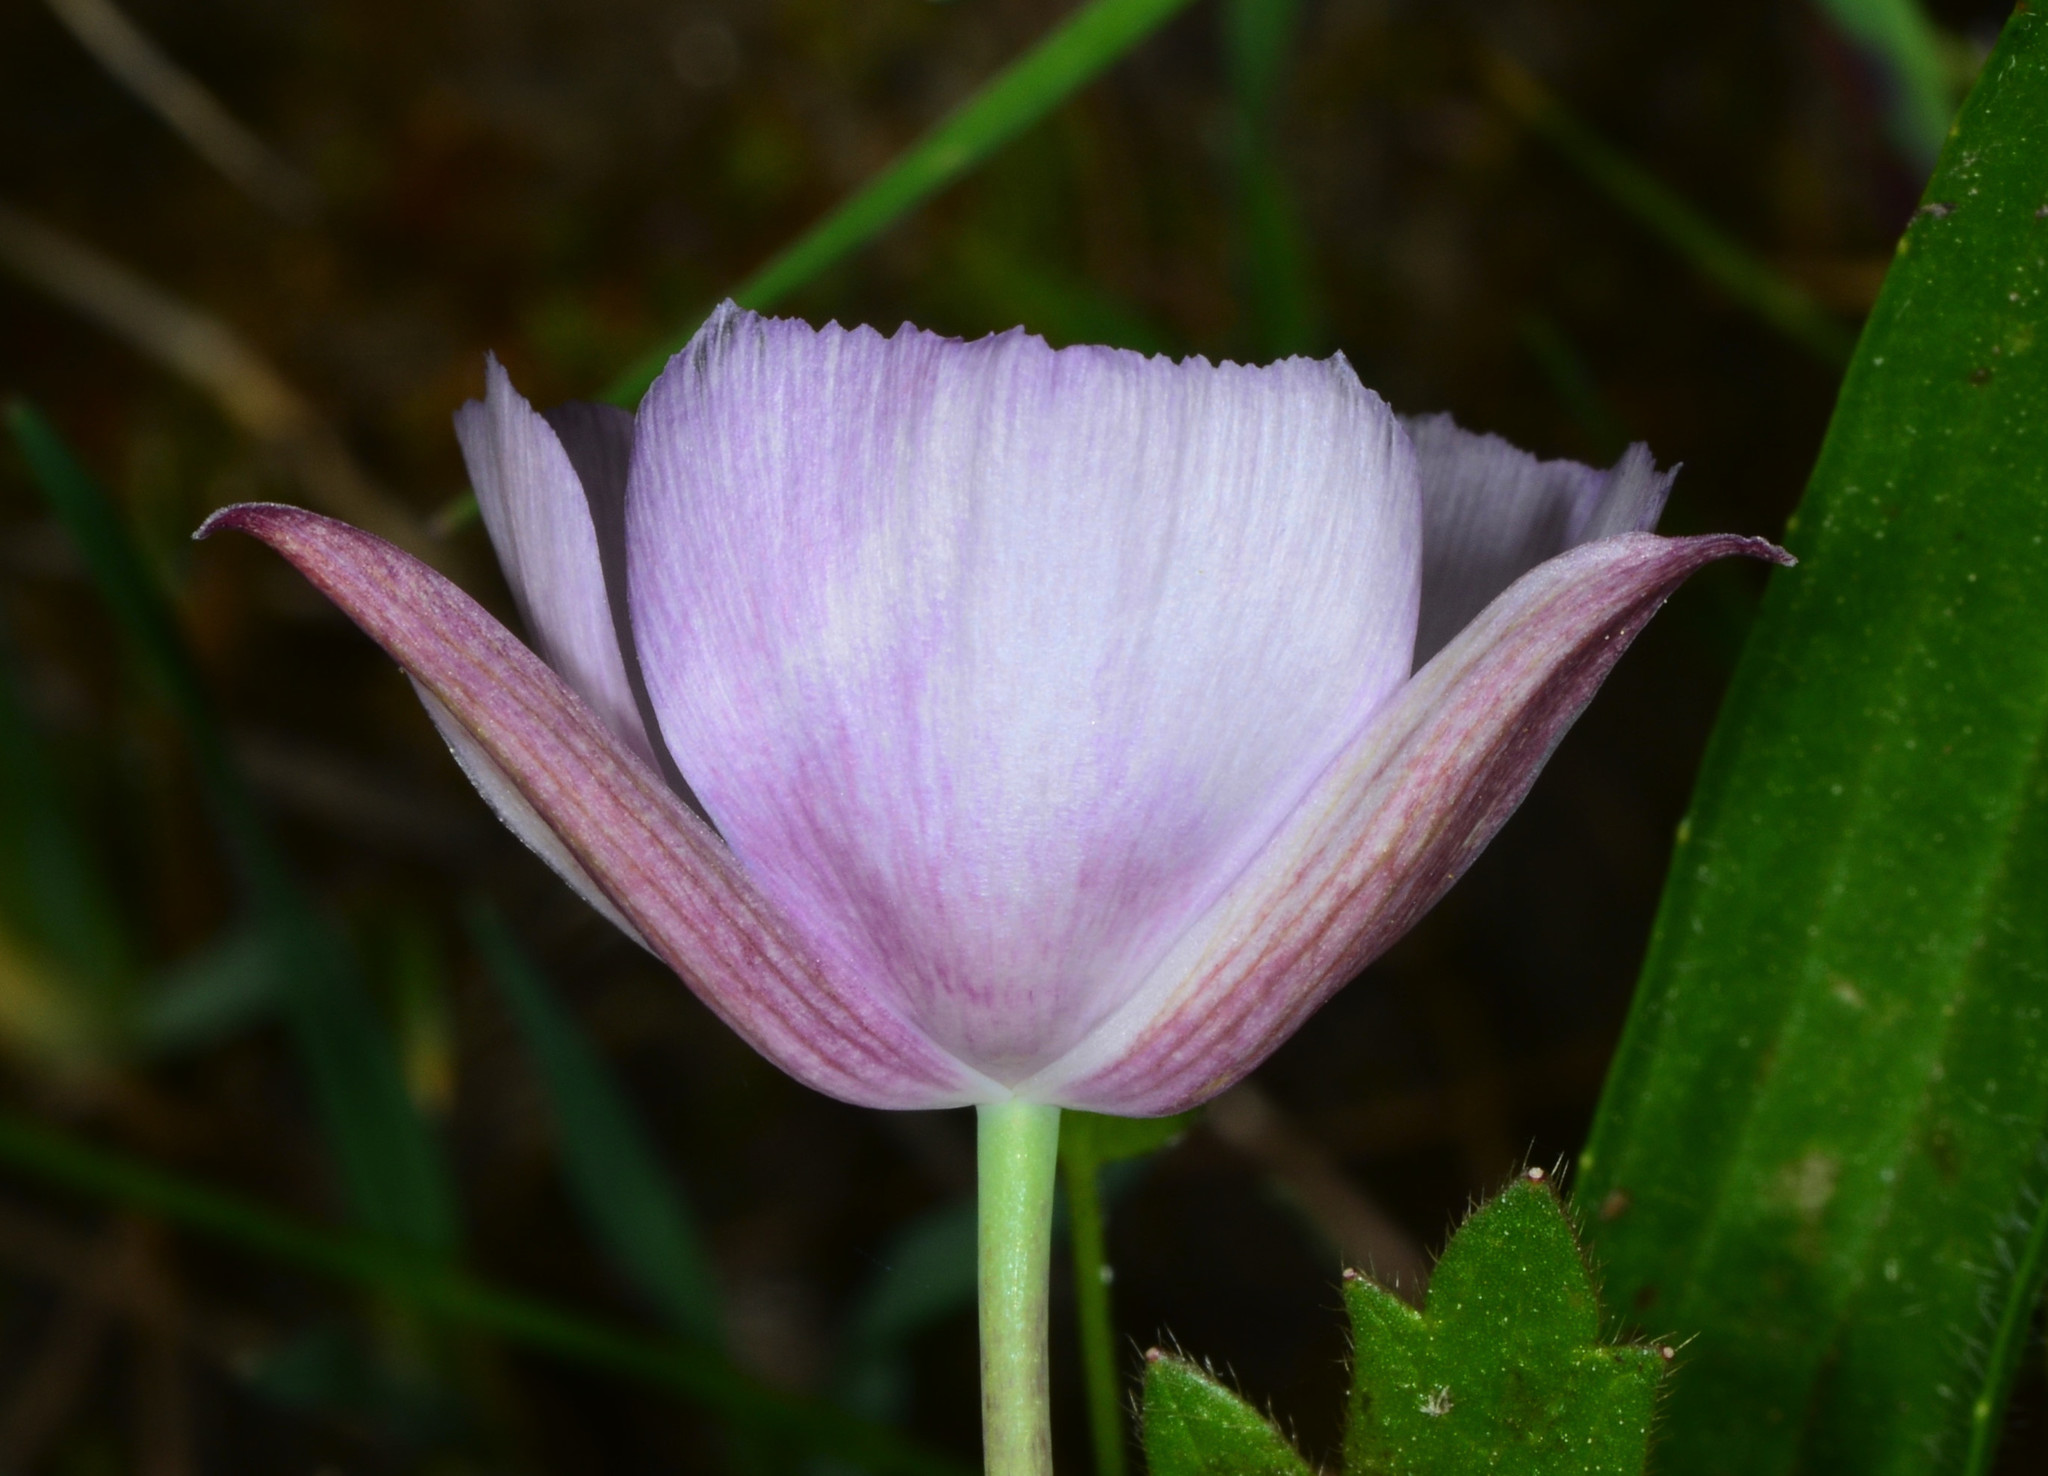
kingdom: Plantae
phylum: Tracheophyta
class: Liliopsida
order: Liliales
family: Liliaceae
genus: Calochortus
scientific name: Calochortus umbellatus
